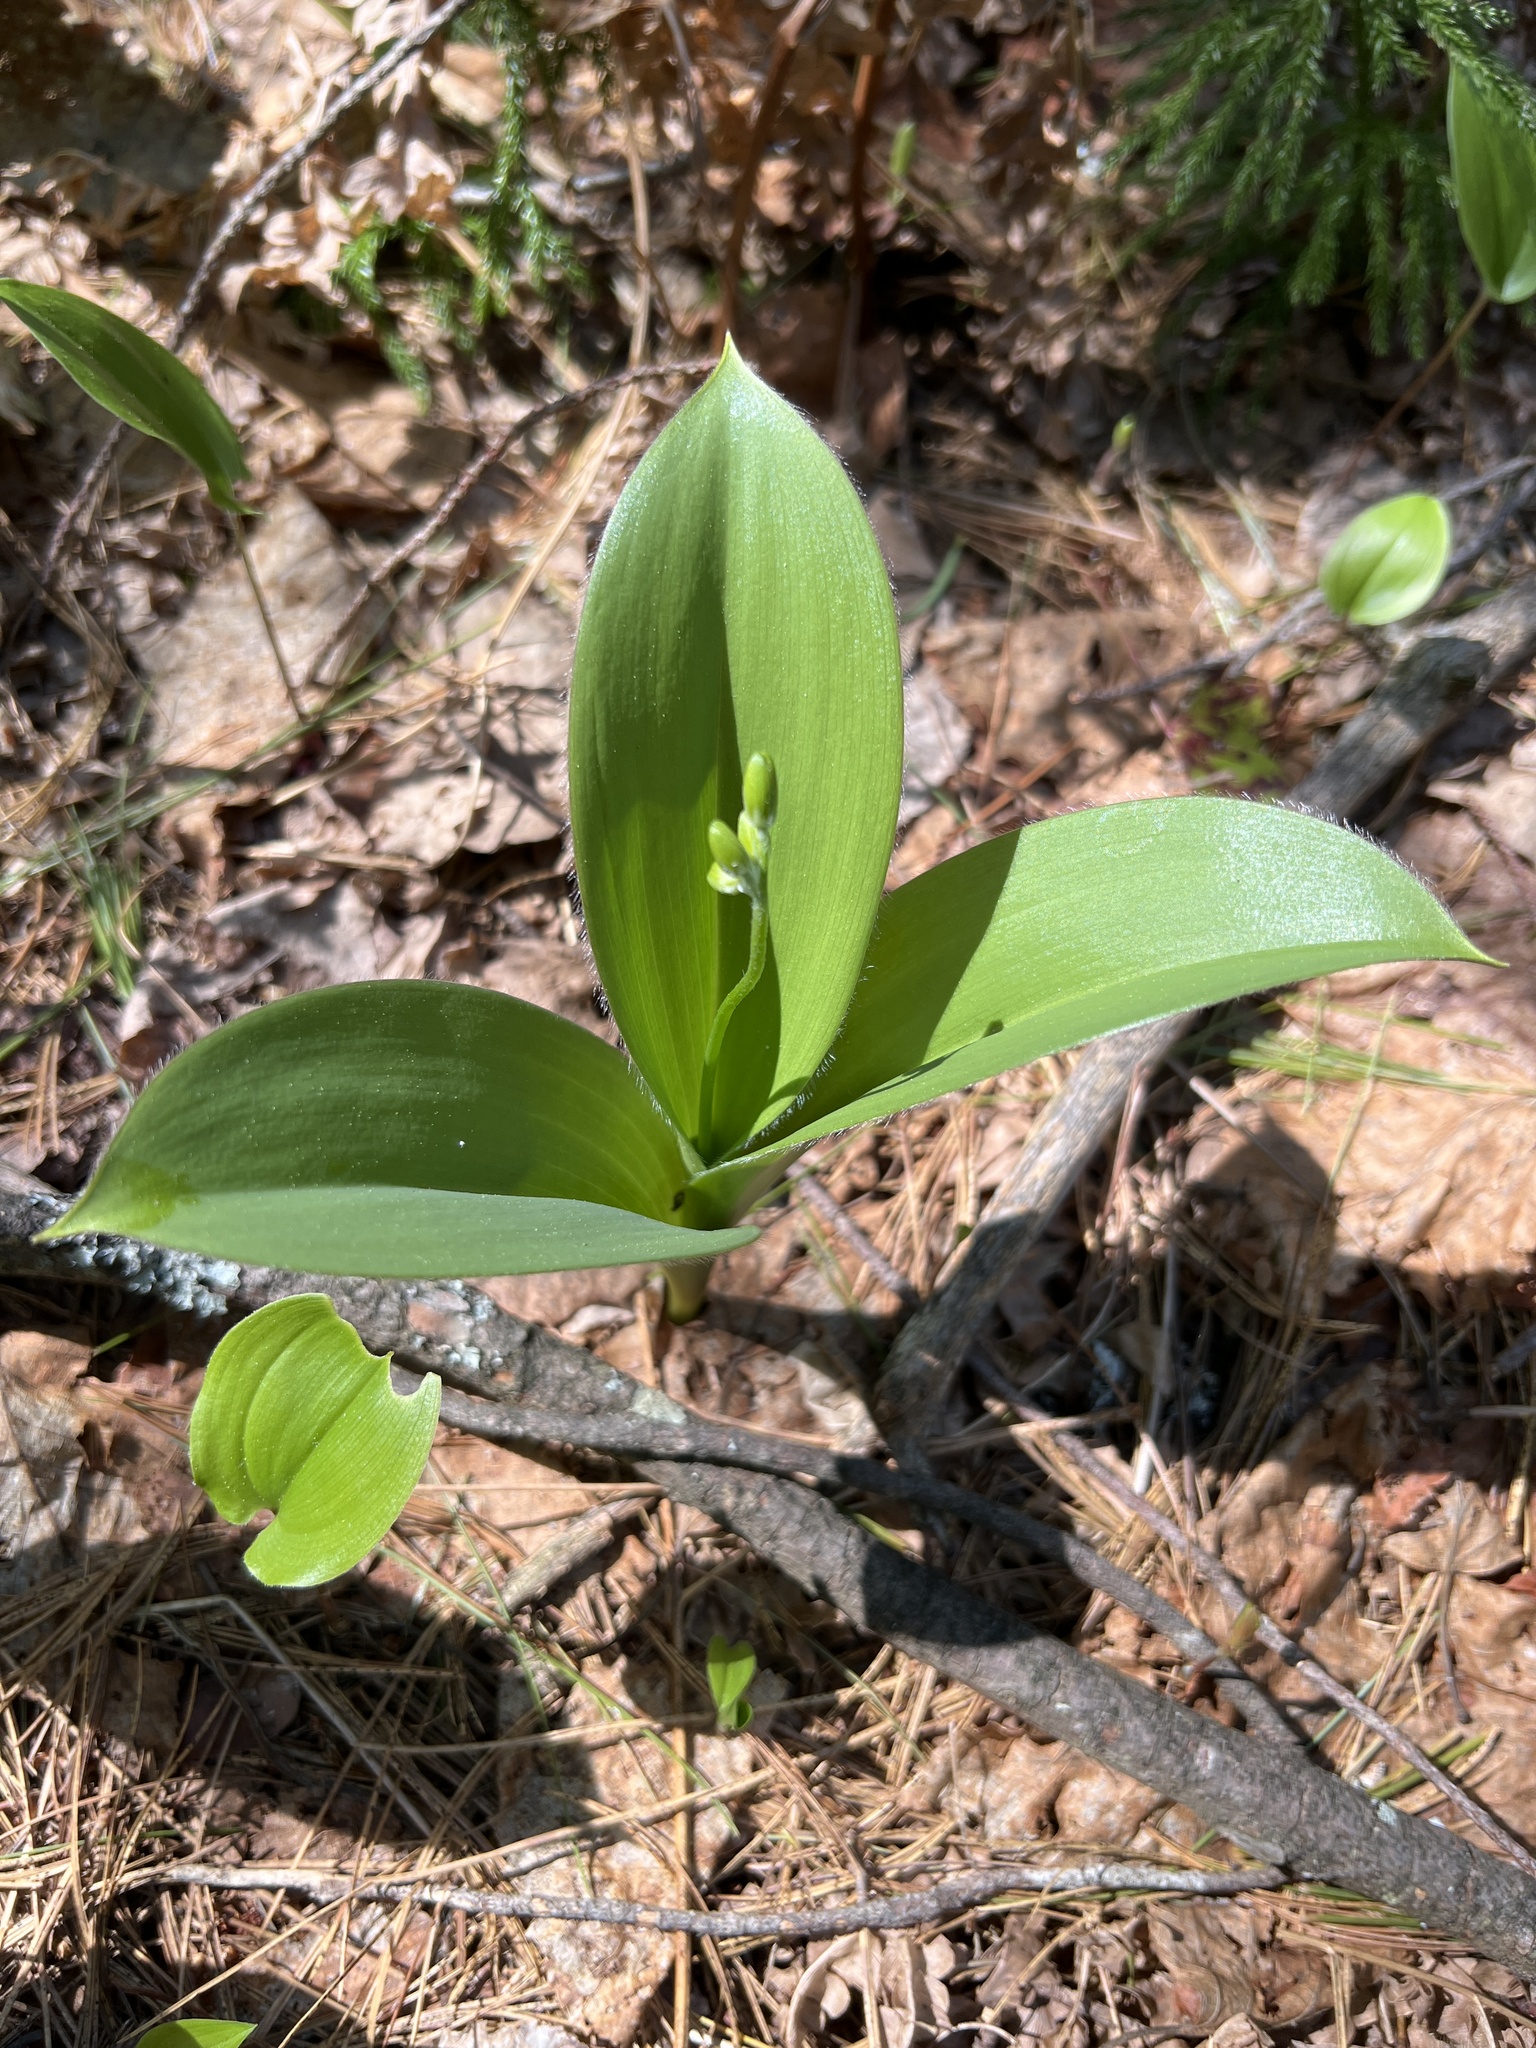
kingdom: Plantae
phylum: Tracheophyta
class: Liliopsida
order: Liliales
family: Liliaceae
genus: Clintonia
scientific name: Clintonia borealis
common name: Yellow clintonia
